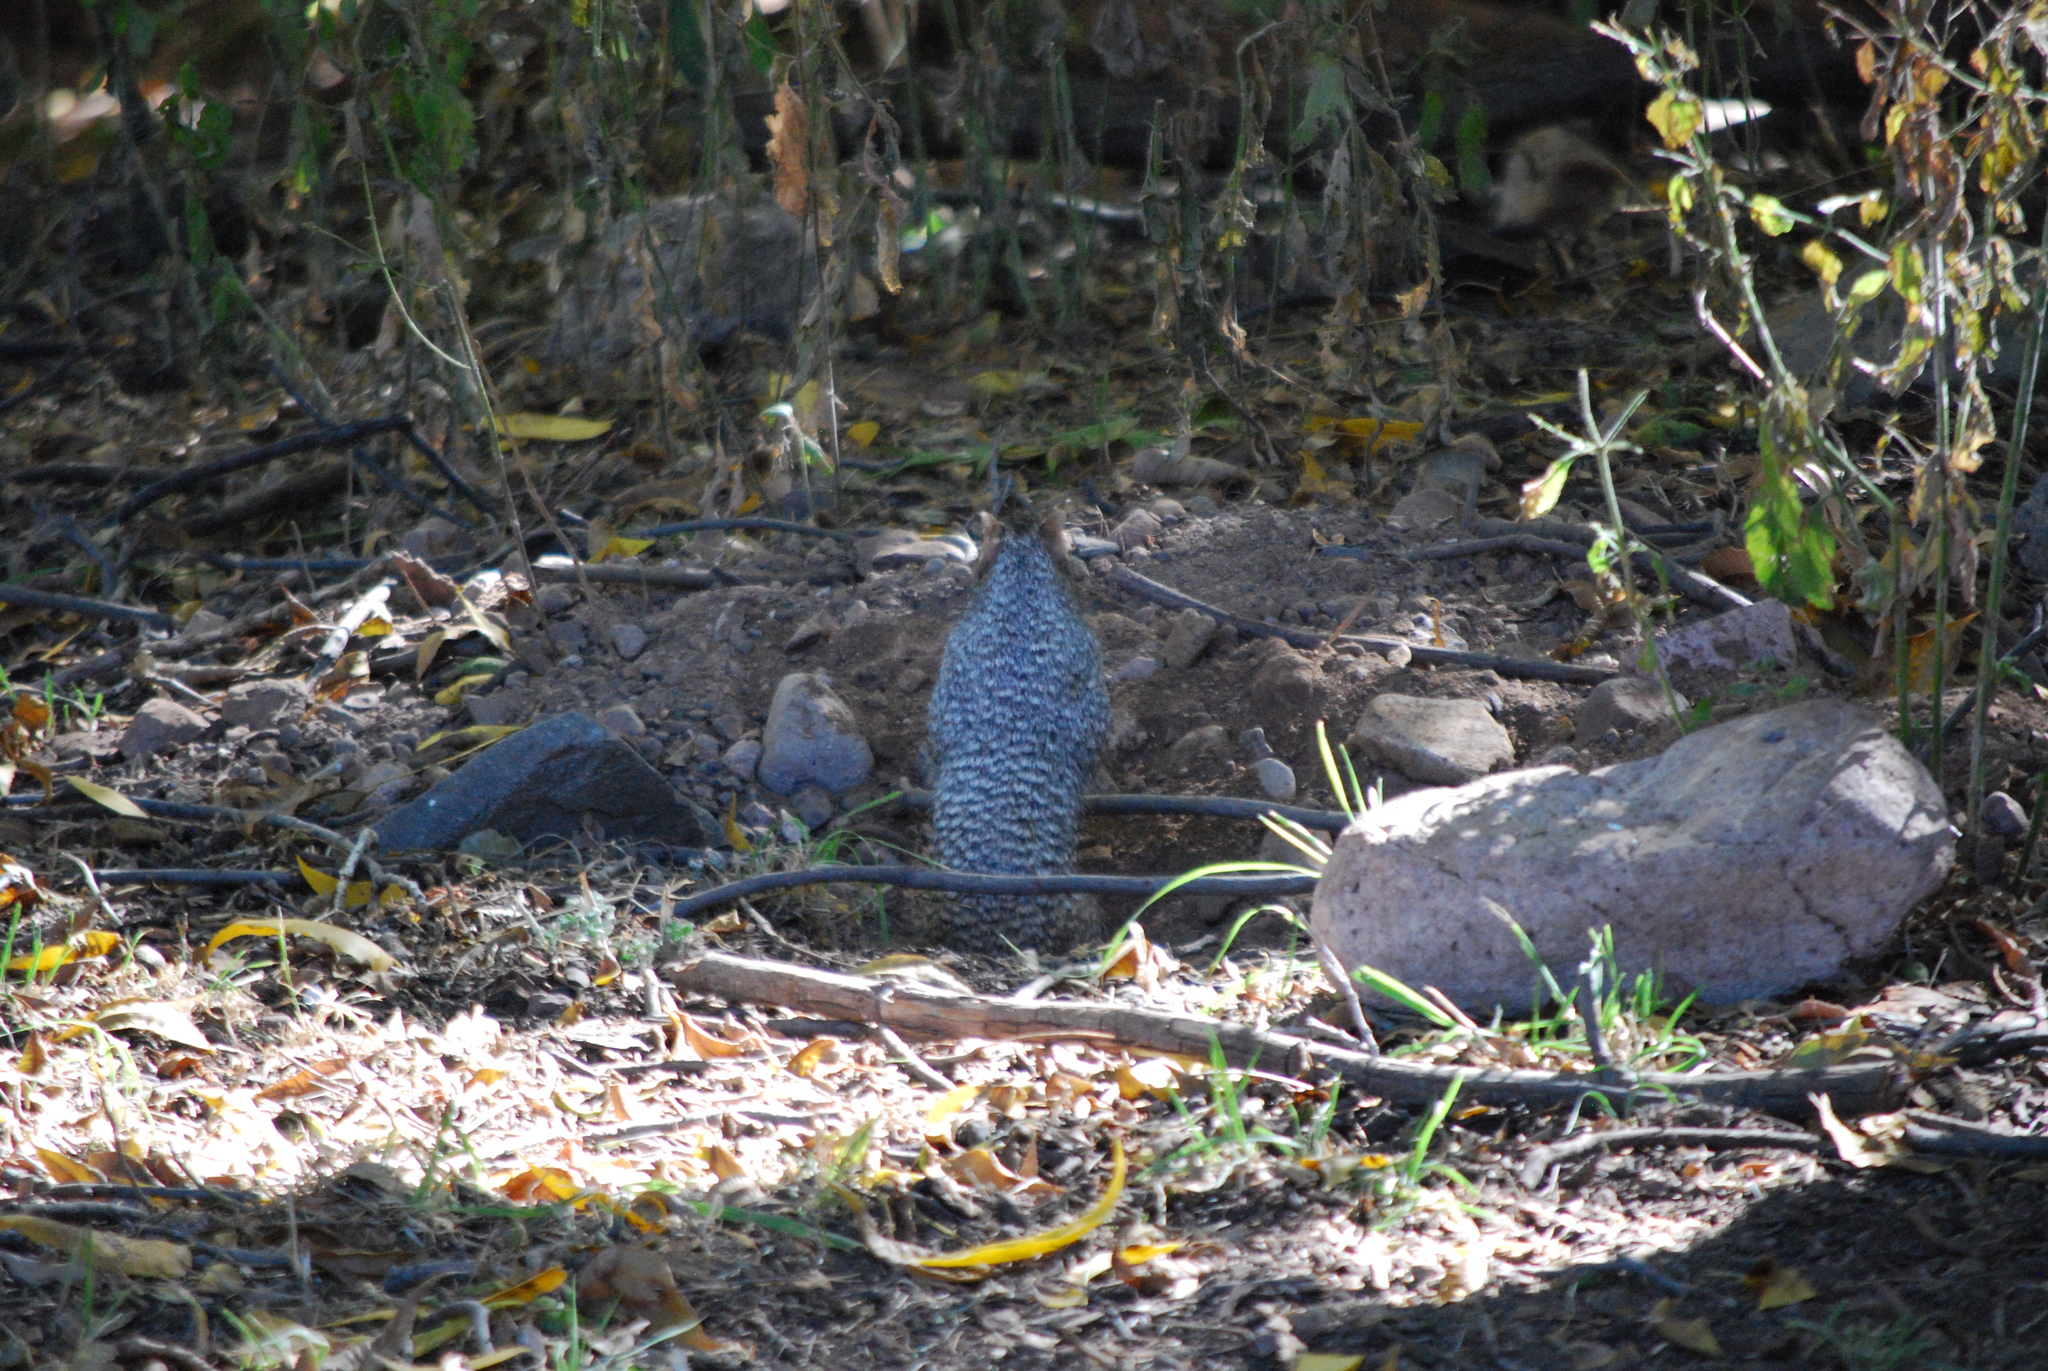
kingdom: Animalia
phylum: Chordata
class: Mammalia
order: Rodentia
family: Sciuridae
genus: Otospermophilus
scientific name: Otospermophilus variegatus
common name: Rock squirrel
